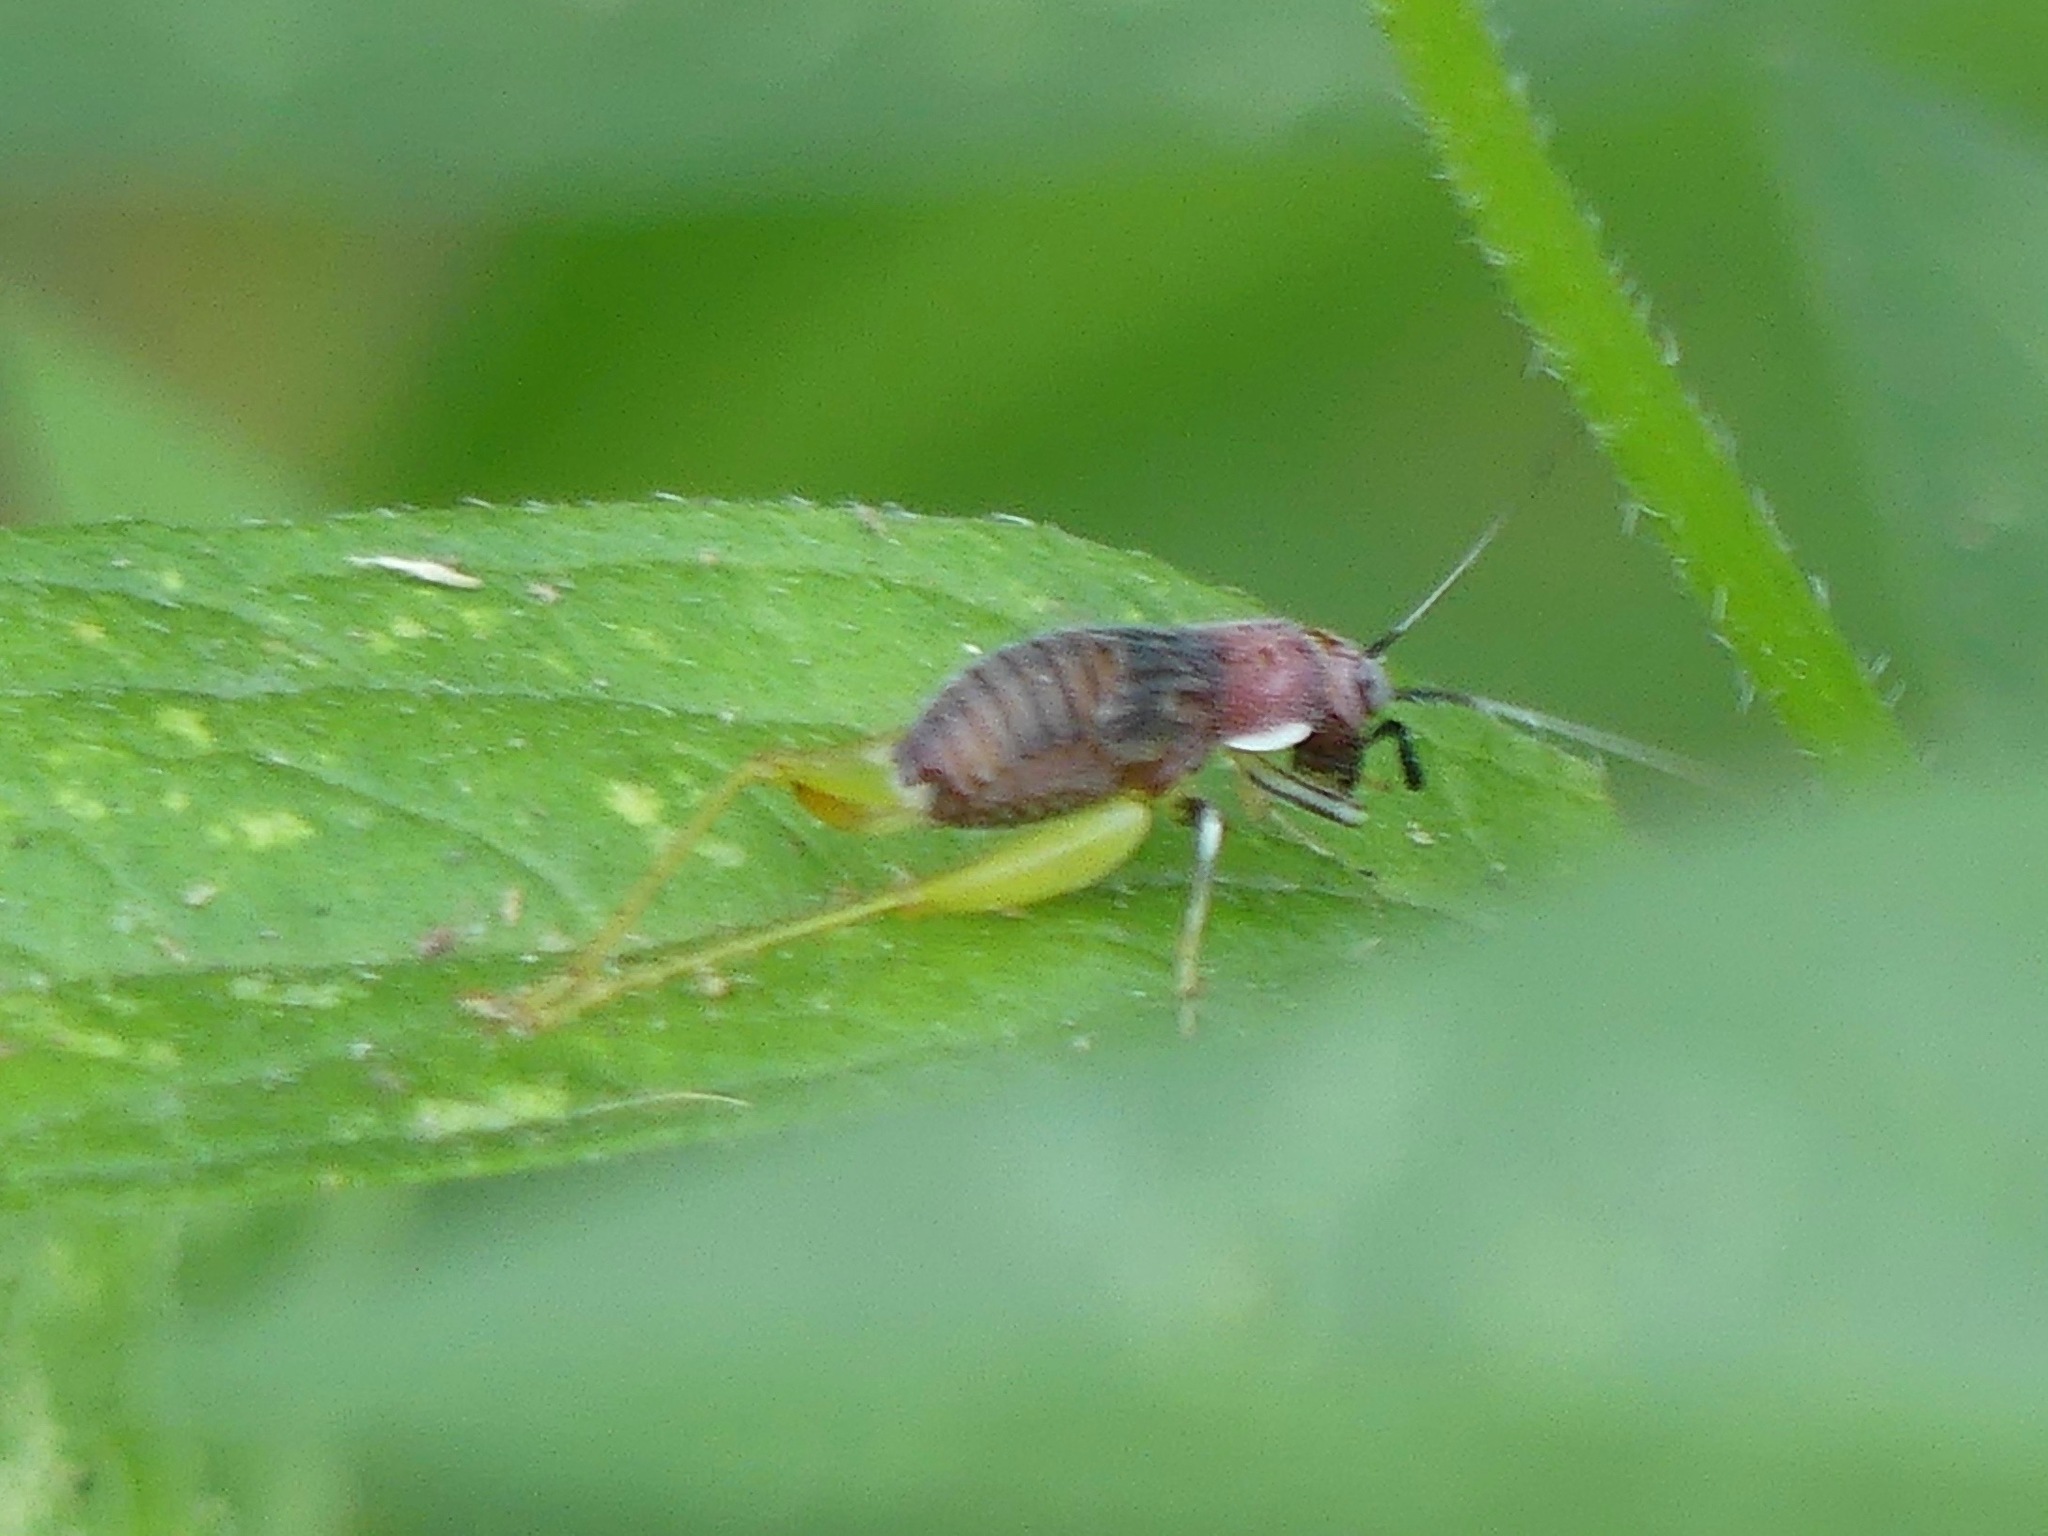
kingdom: Animalia
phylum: Arthropoda
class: Insecta
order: Orthoptera
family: Trigonidiidae
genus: Phyllopalpus
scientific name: Phyllopalpus pulchellus
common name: Handsome trig
